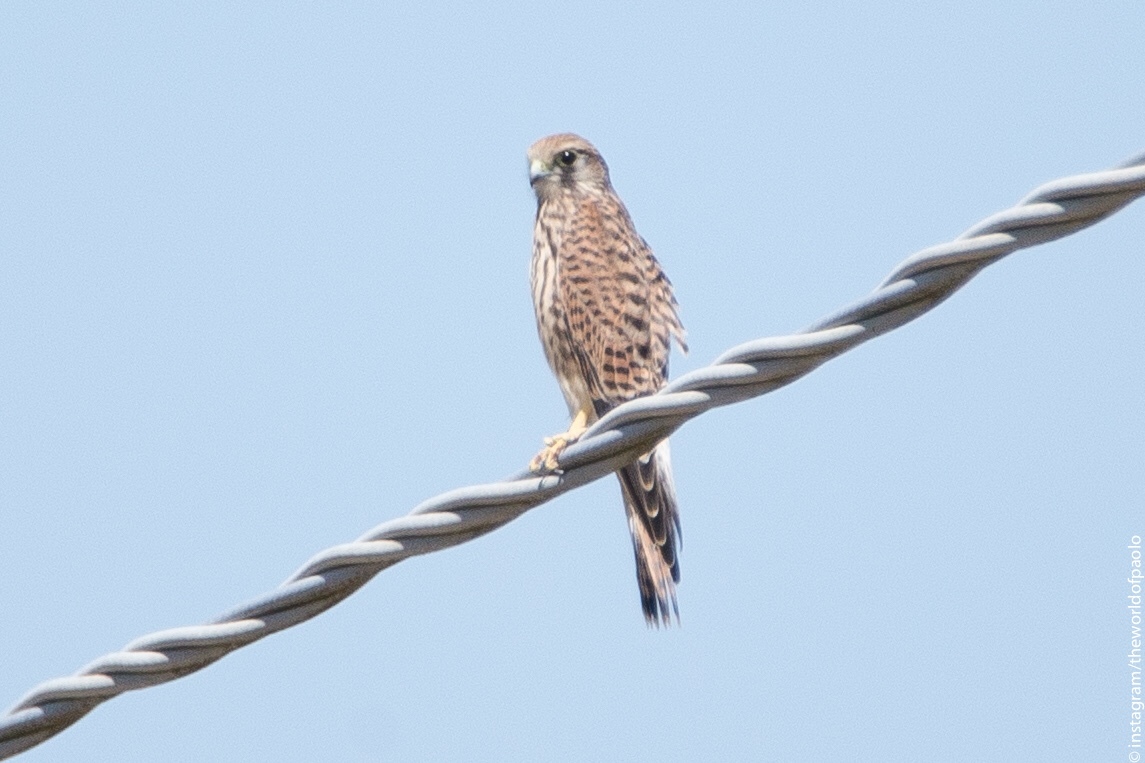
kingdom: Animalia
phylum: Chordata
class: Aves
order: Falconiformes
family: Falconidae
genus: Falco
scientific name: Falco tinnunculus
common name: Common kestrel
